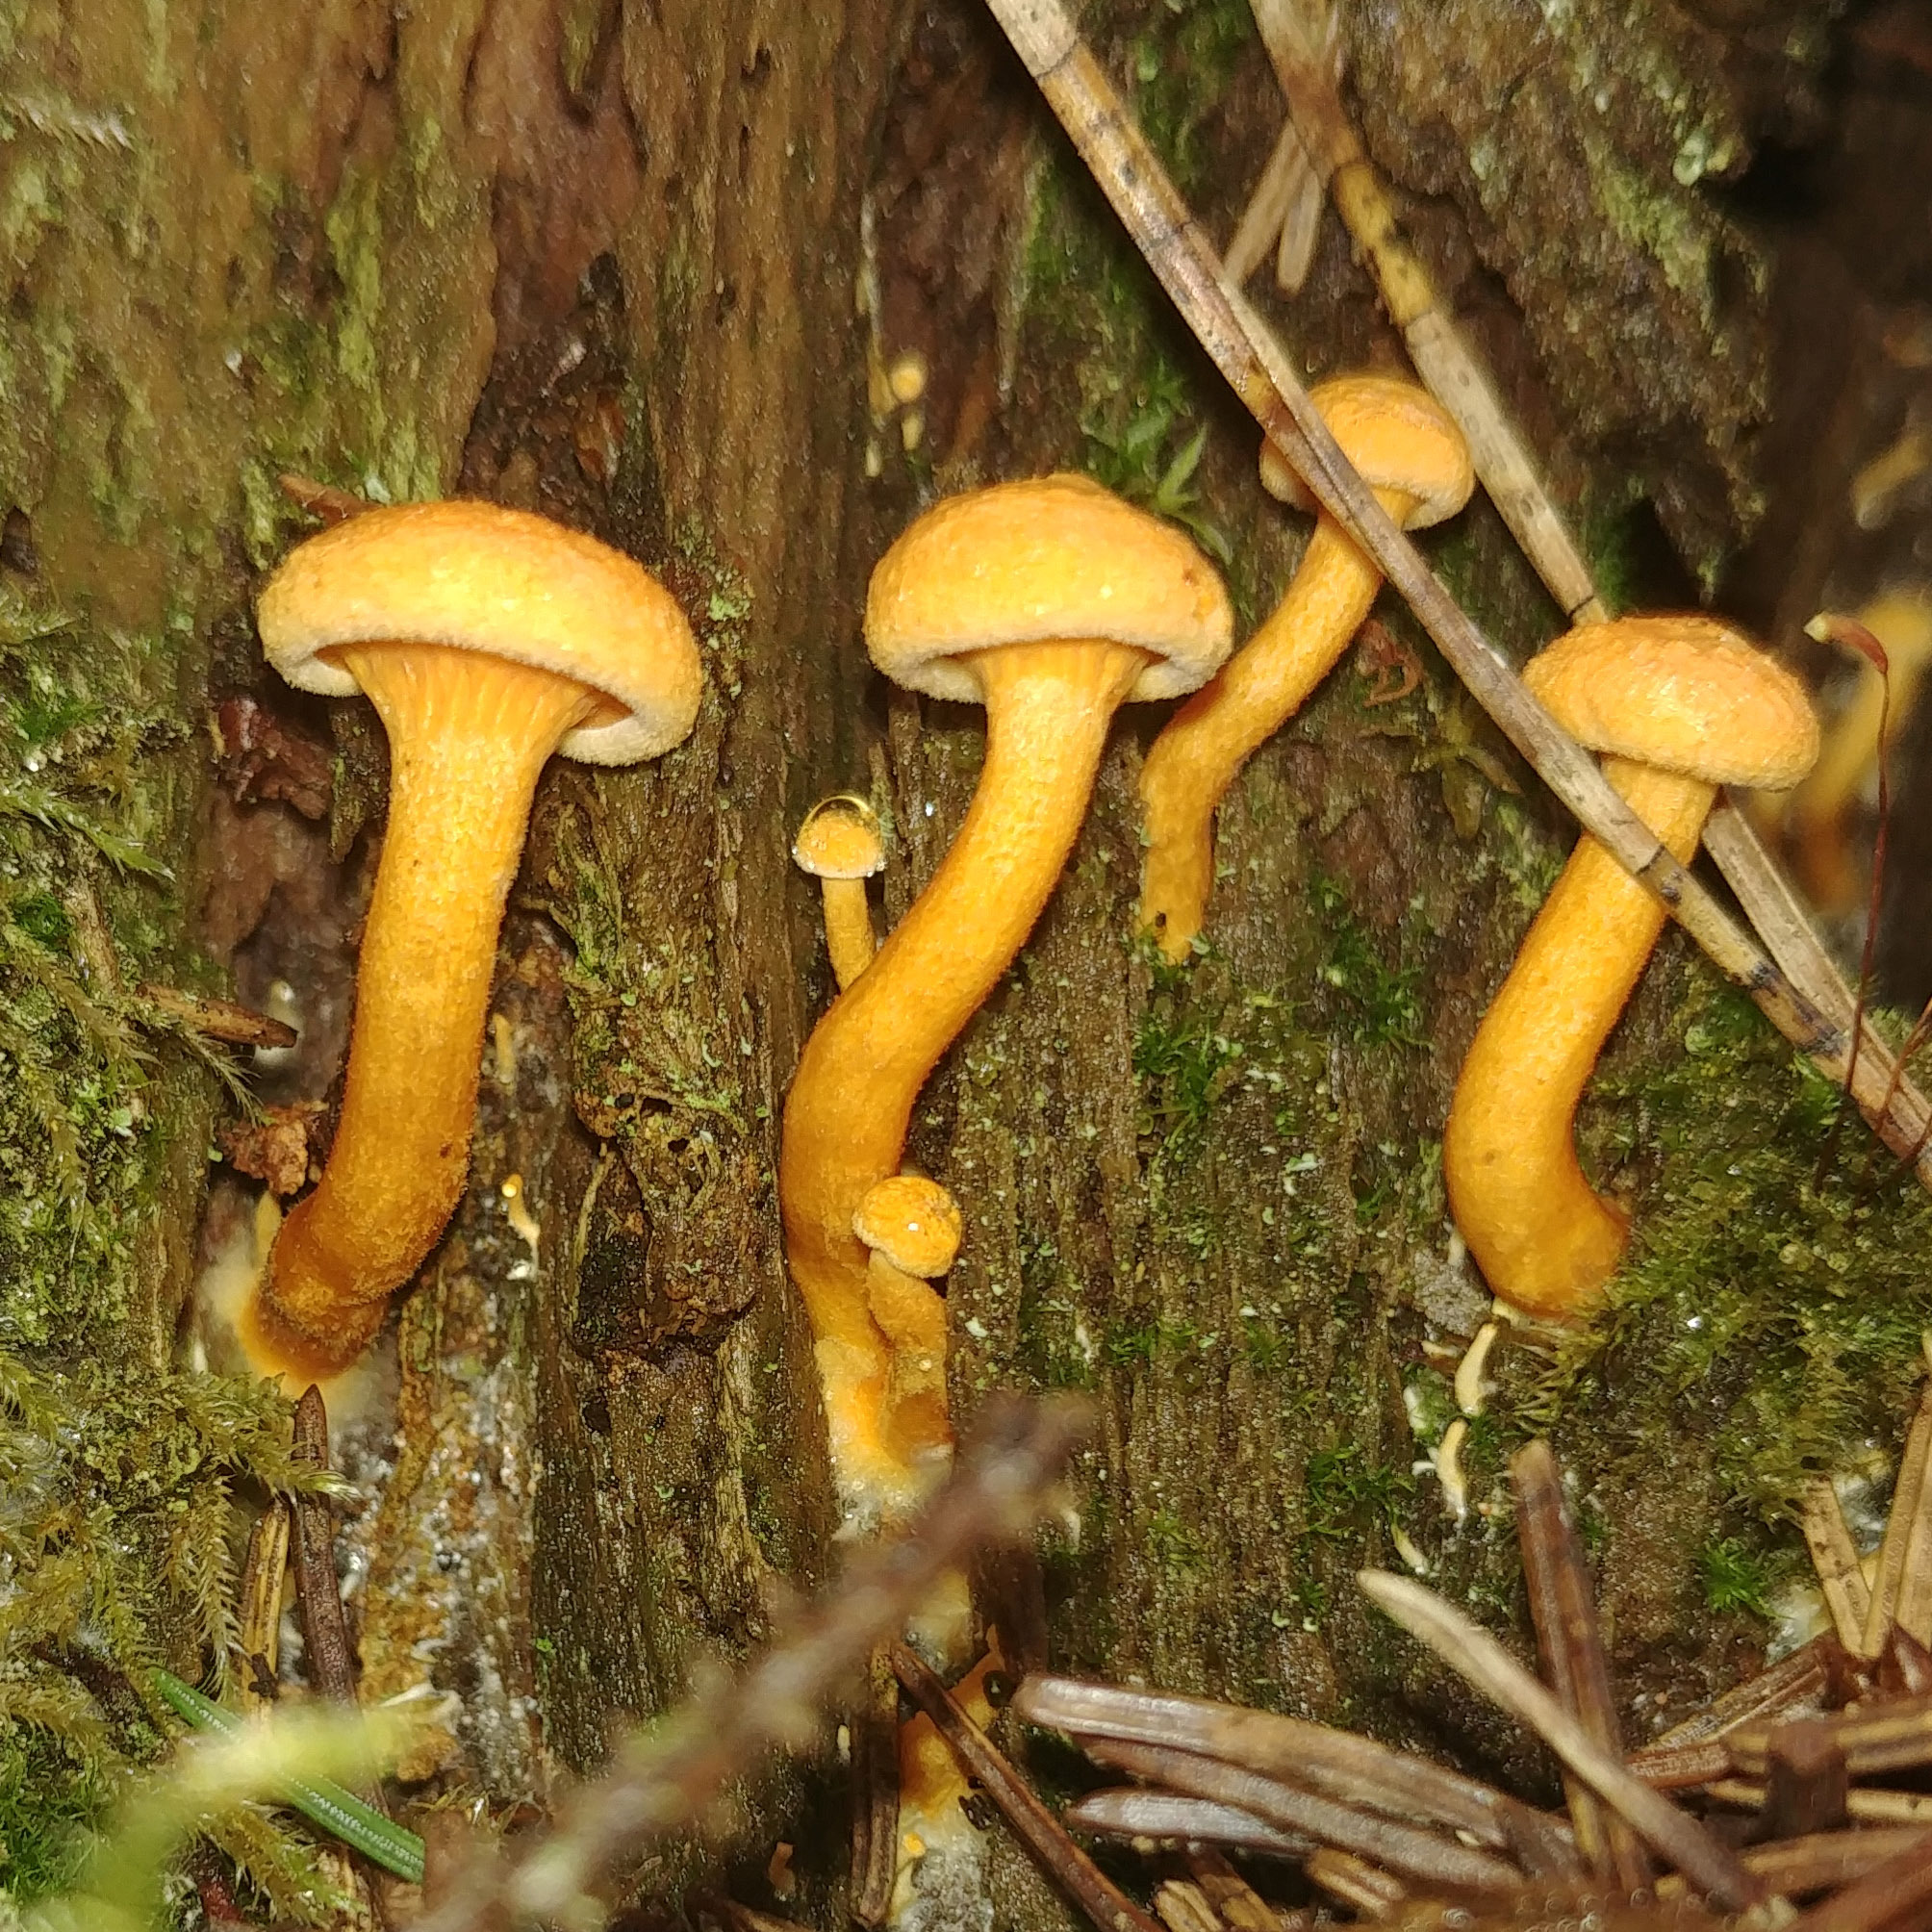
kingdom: Fungi
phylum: Basidiomycota
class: Agaricomycetes
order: Boletales
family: Hygrophoropsidaceae
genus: Hygrophoropsis
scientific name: Hygrophoropsis aurantiaca
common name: False chanterelle
